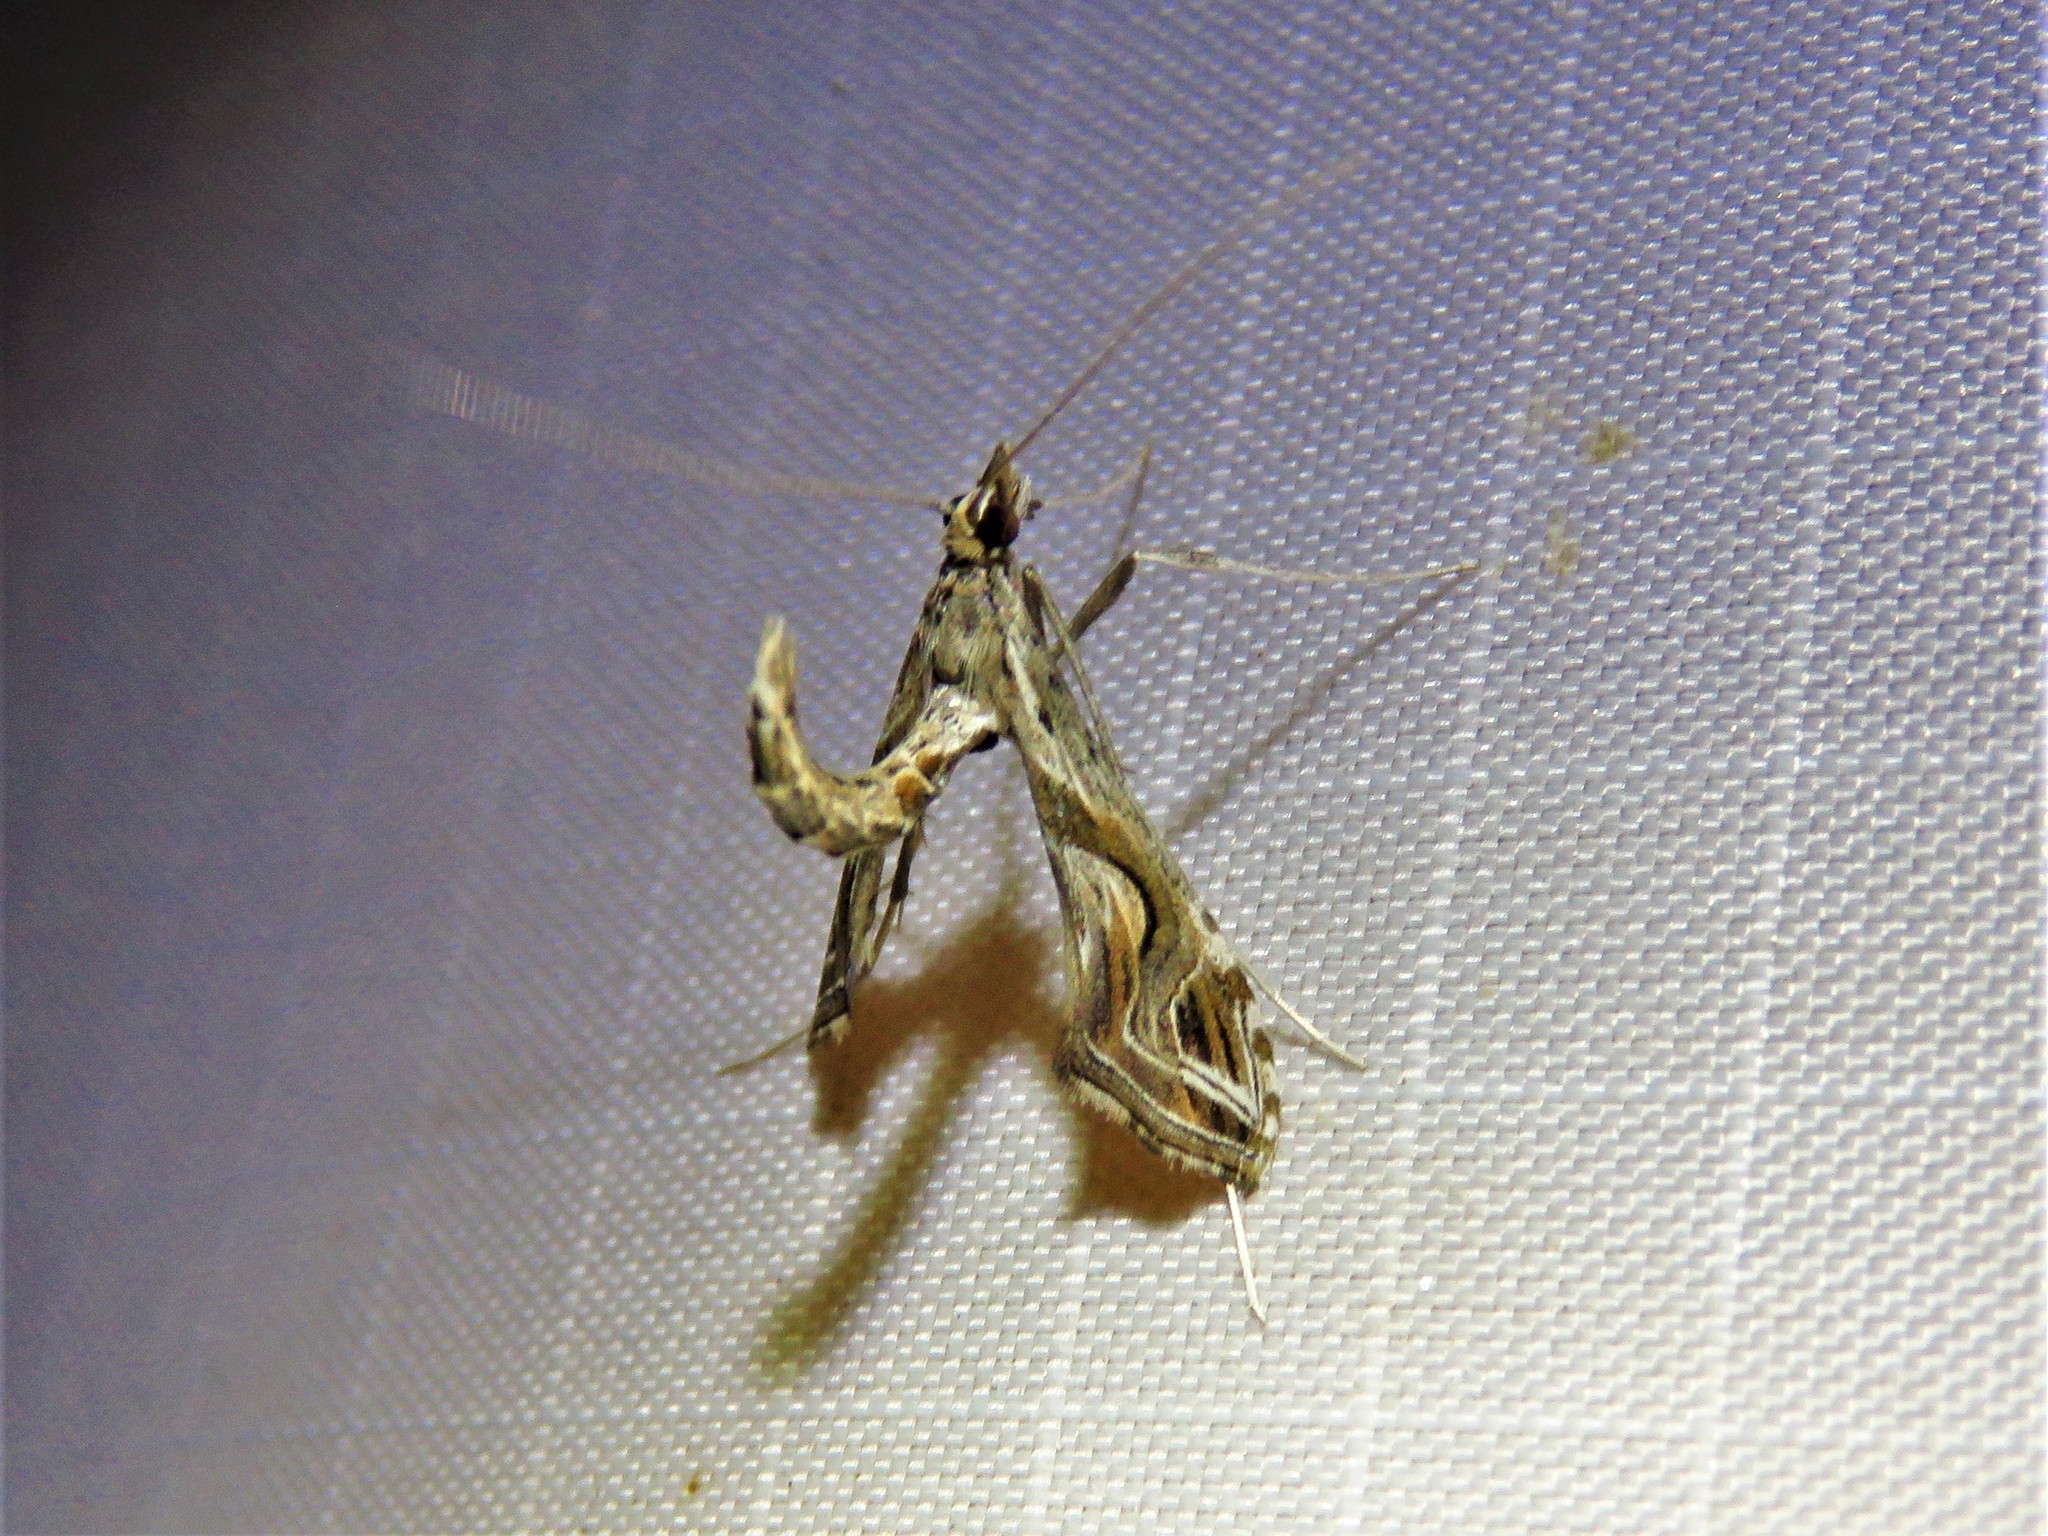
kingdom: Animalia
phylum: Arthropoda
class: Insecta
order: Lepidoptera
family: Crambidae
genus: Lineodes
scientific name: Lineodes integra
